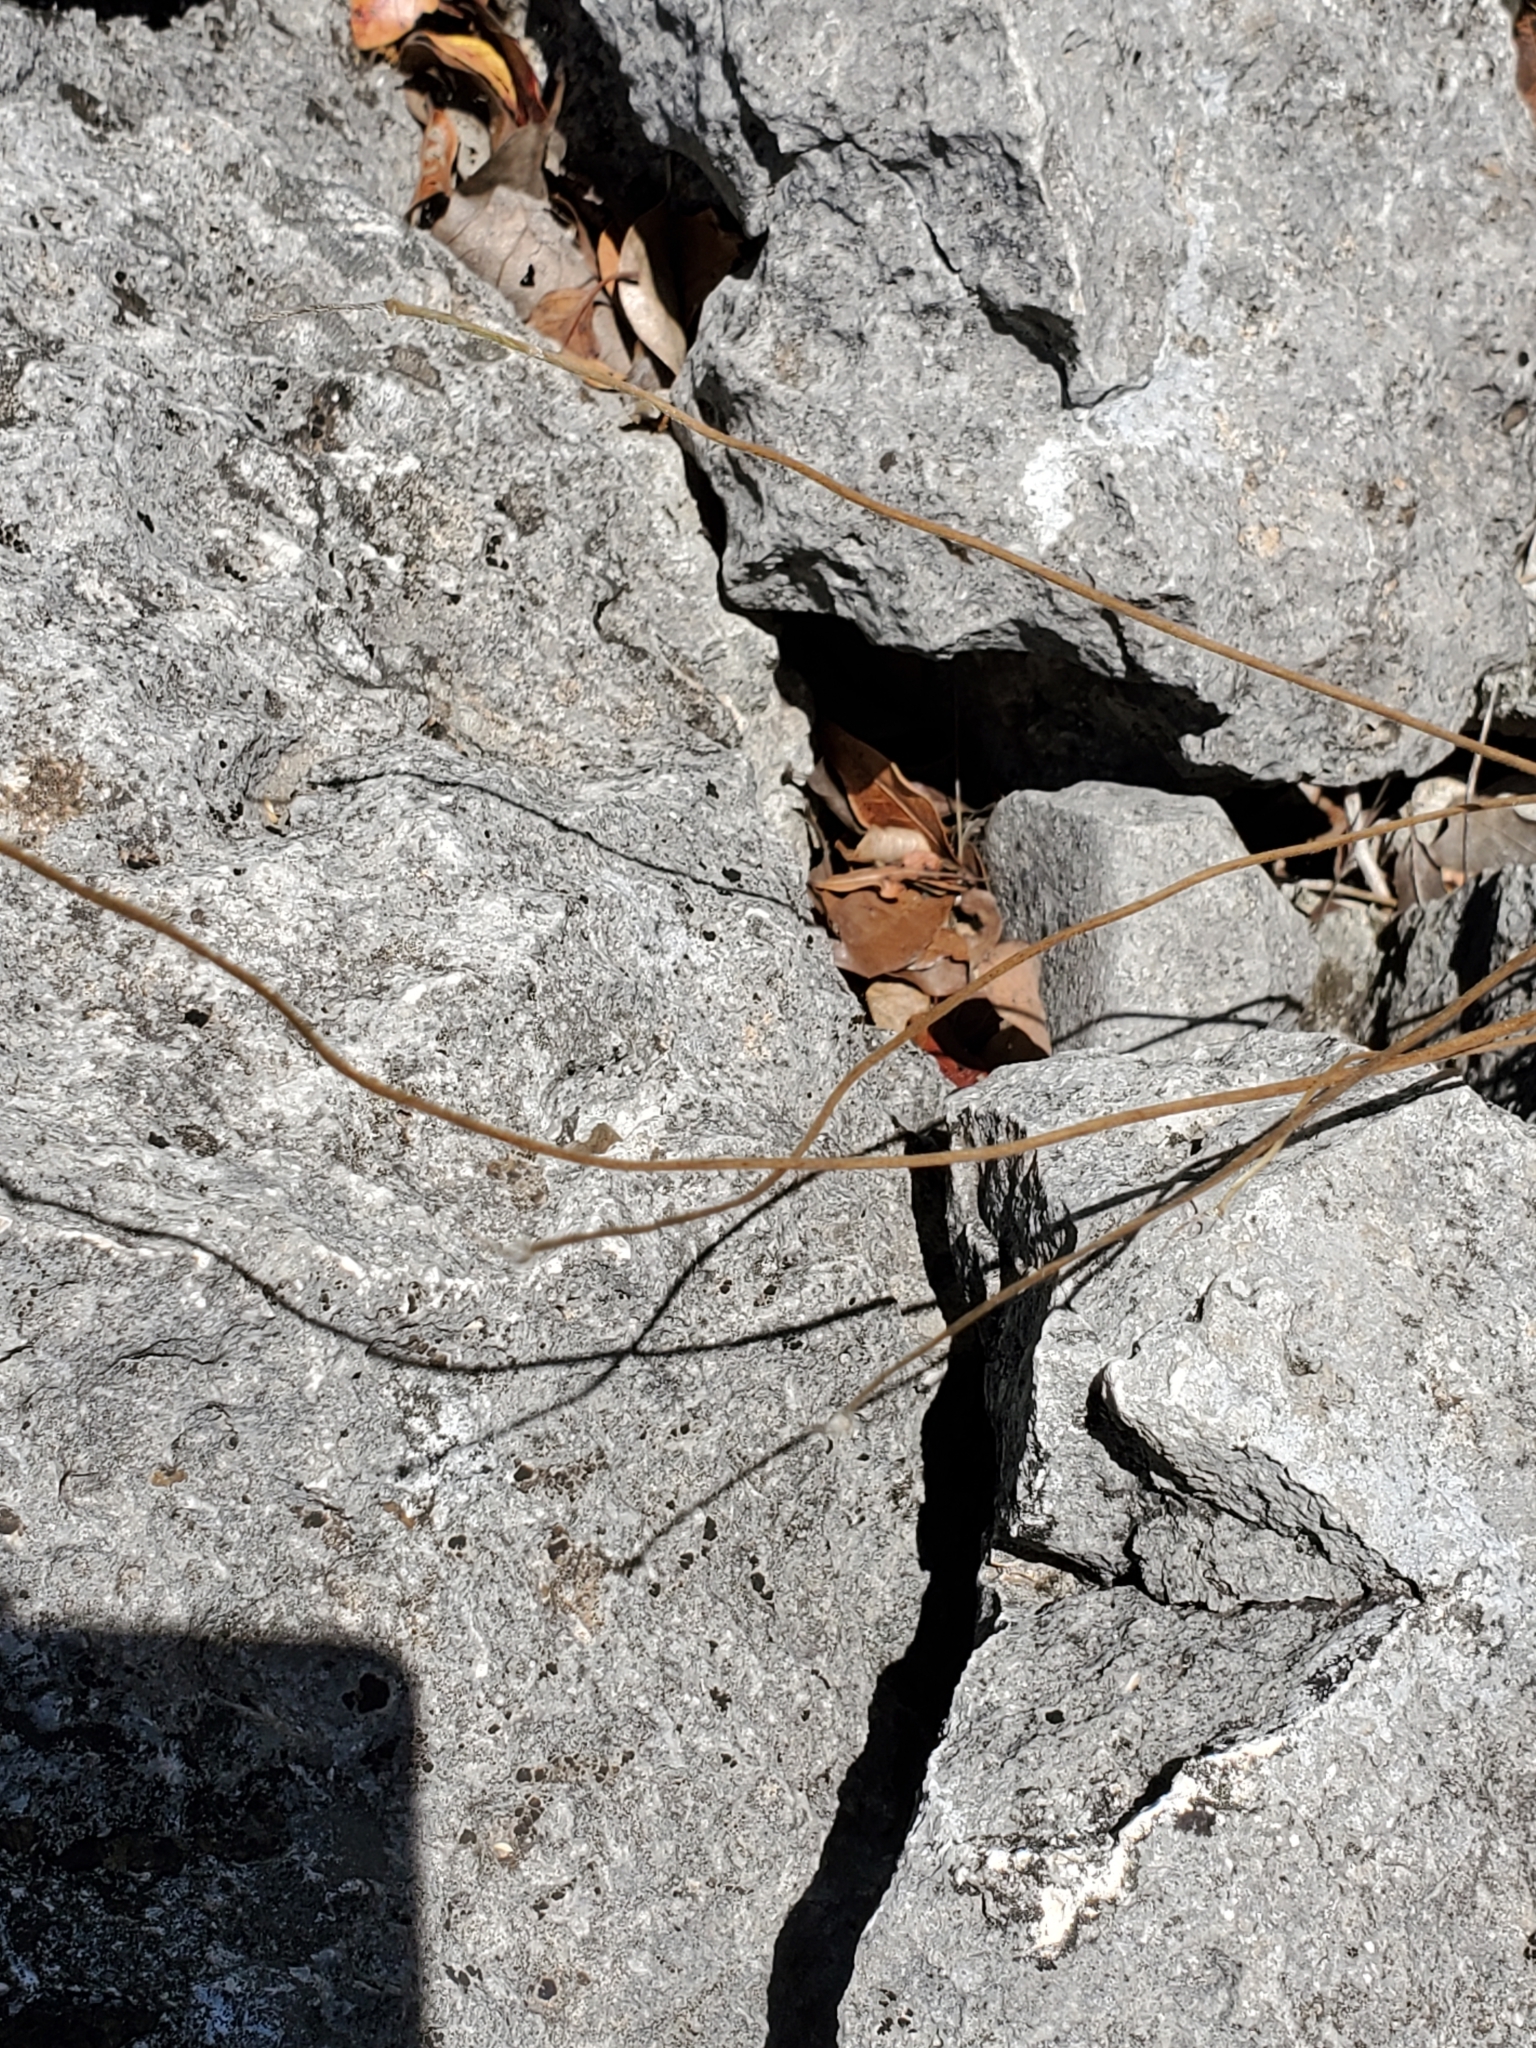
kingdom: Plantae
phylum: Tracheophyta
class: Magnoliopsida
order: Ranunculales
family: Ranunculaceae
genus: Anemone
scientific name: Anemone edwardsiana
